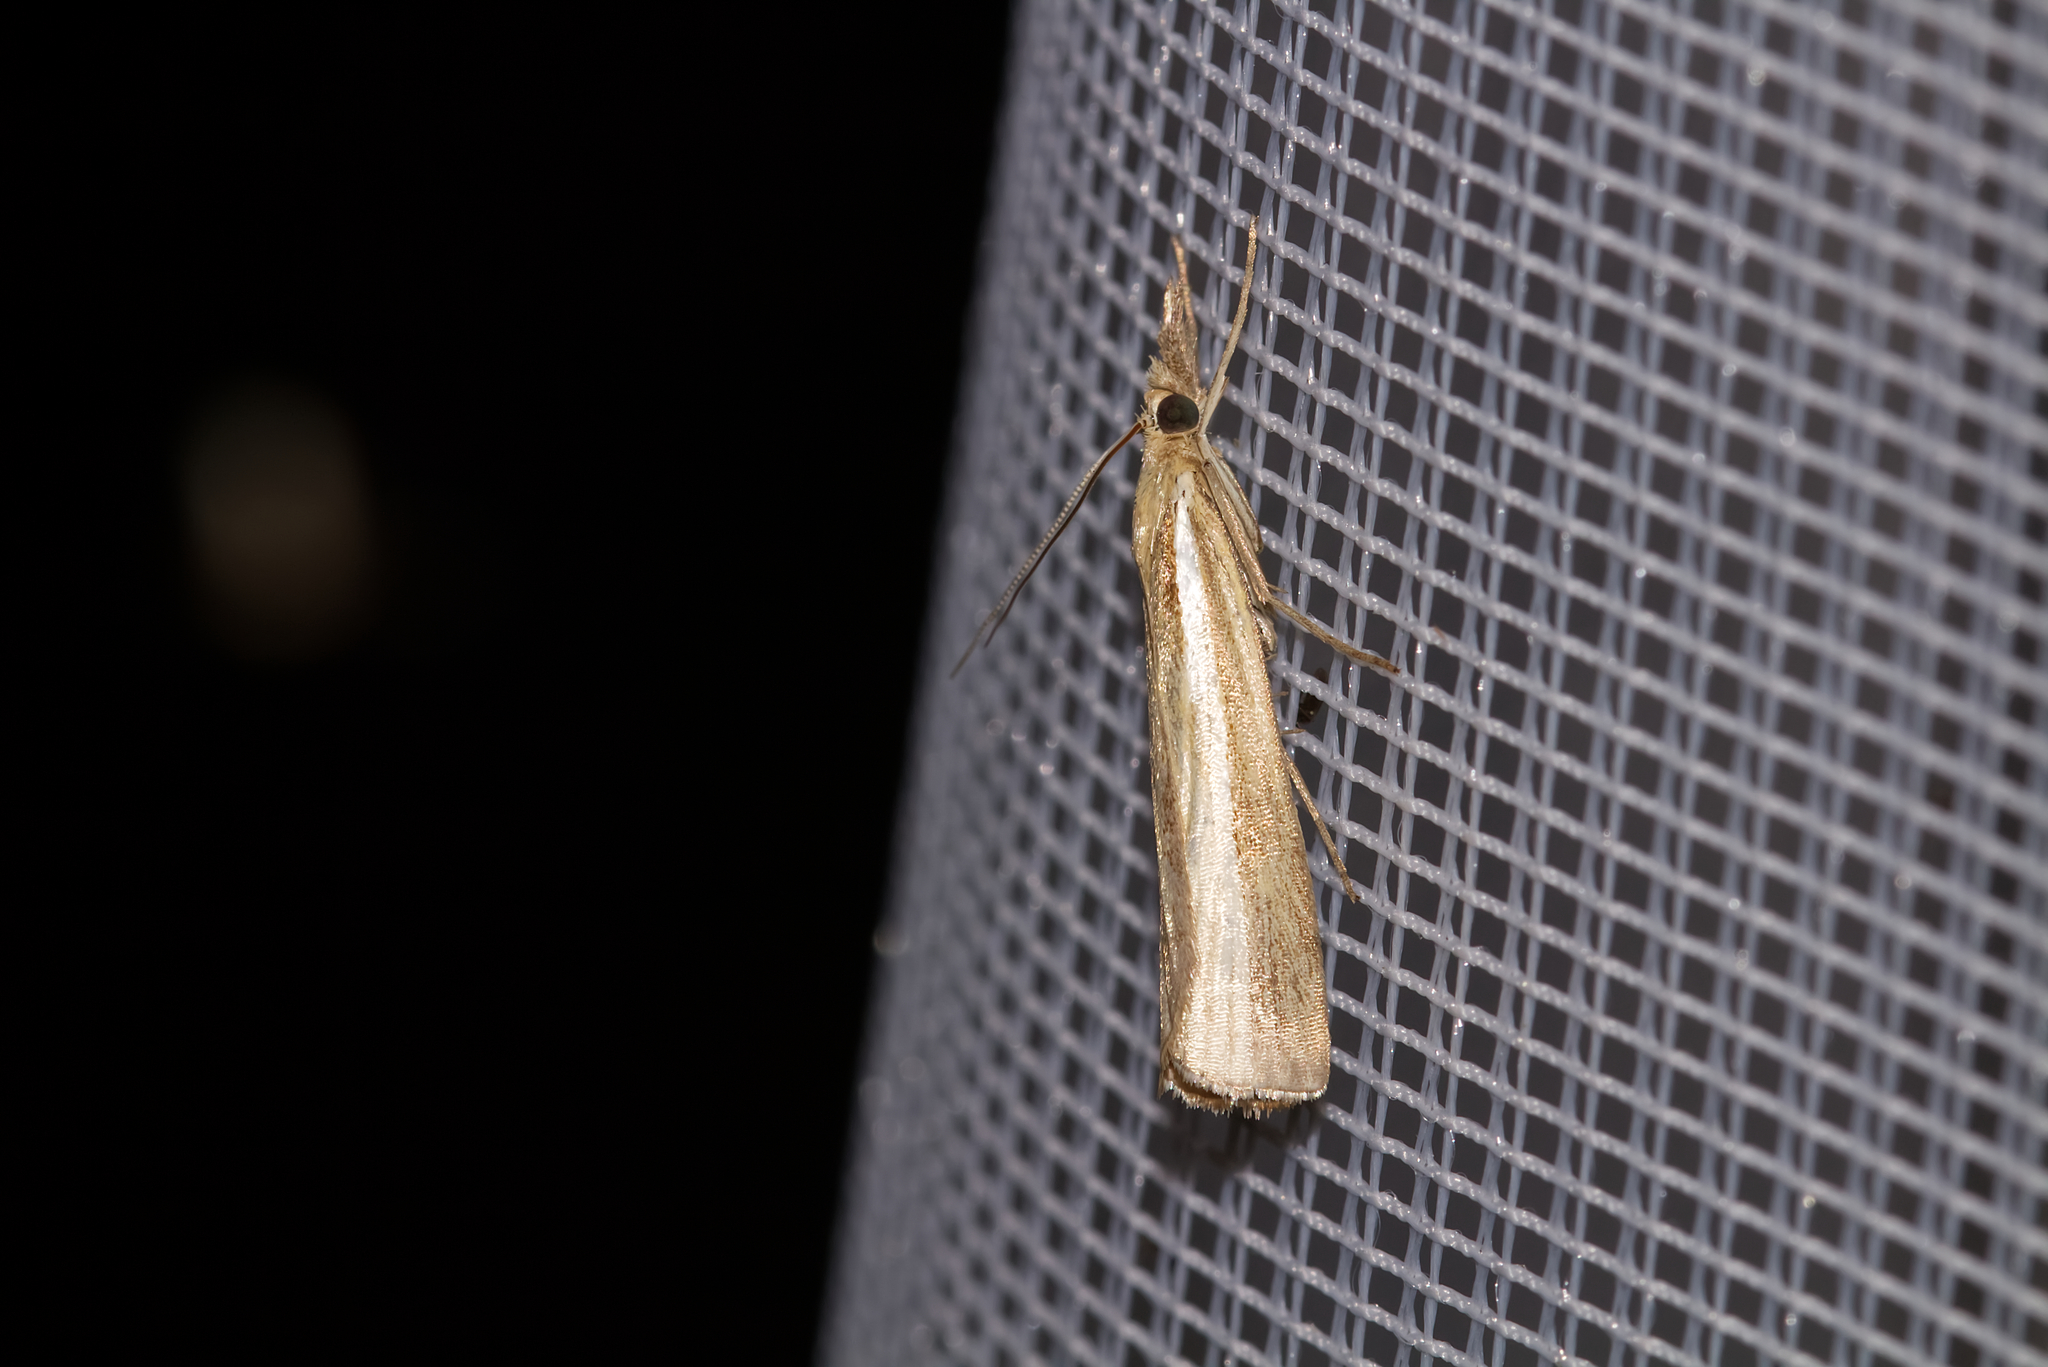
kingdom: Animalia
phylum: Arthropoda
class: Insecta
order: Lepidoptera
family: Crambidae
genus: Agriphila
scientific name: Agriphila tristellus
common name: Common grass-veneer
